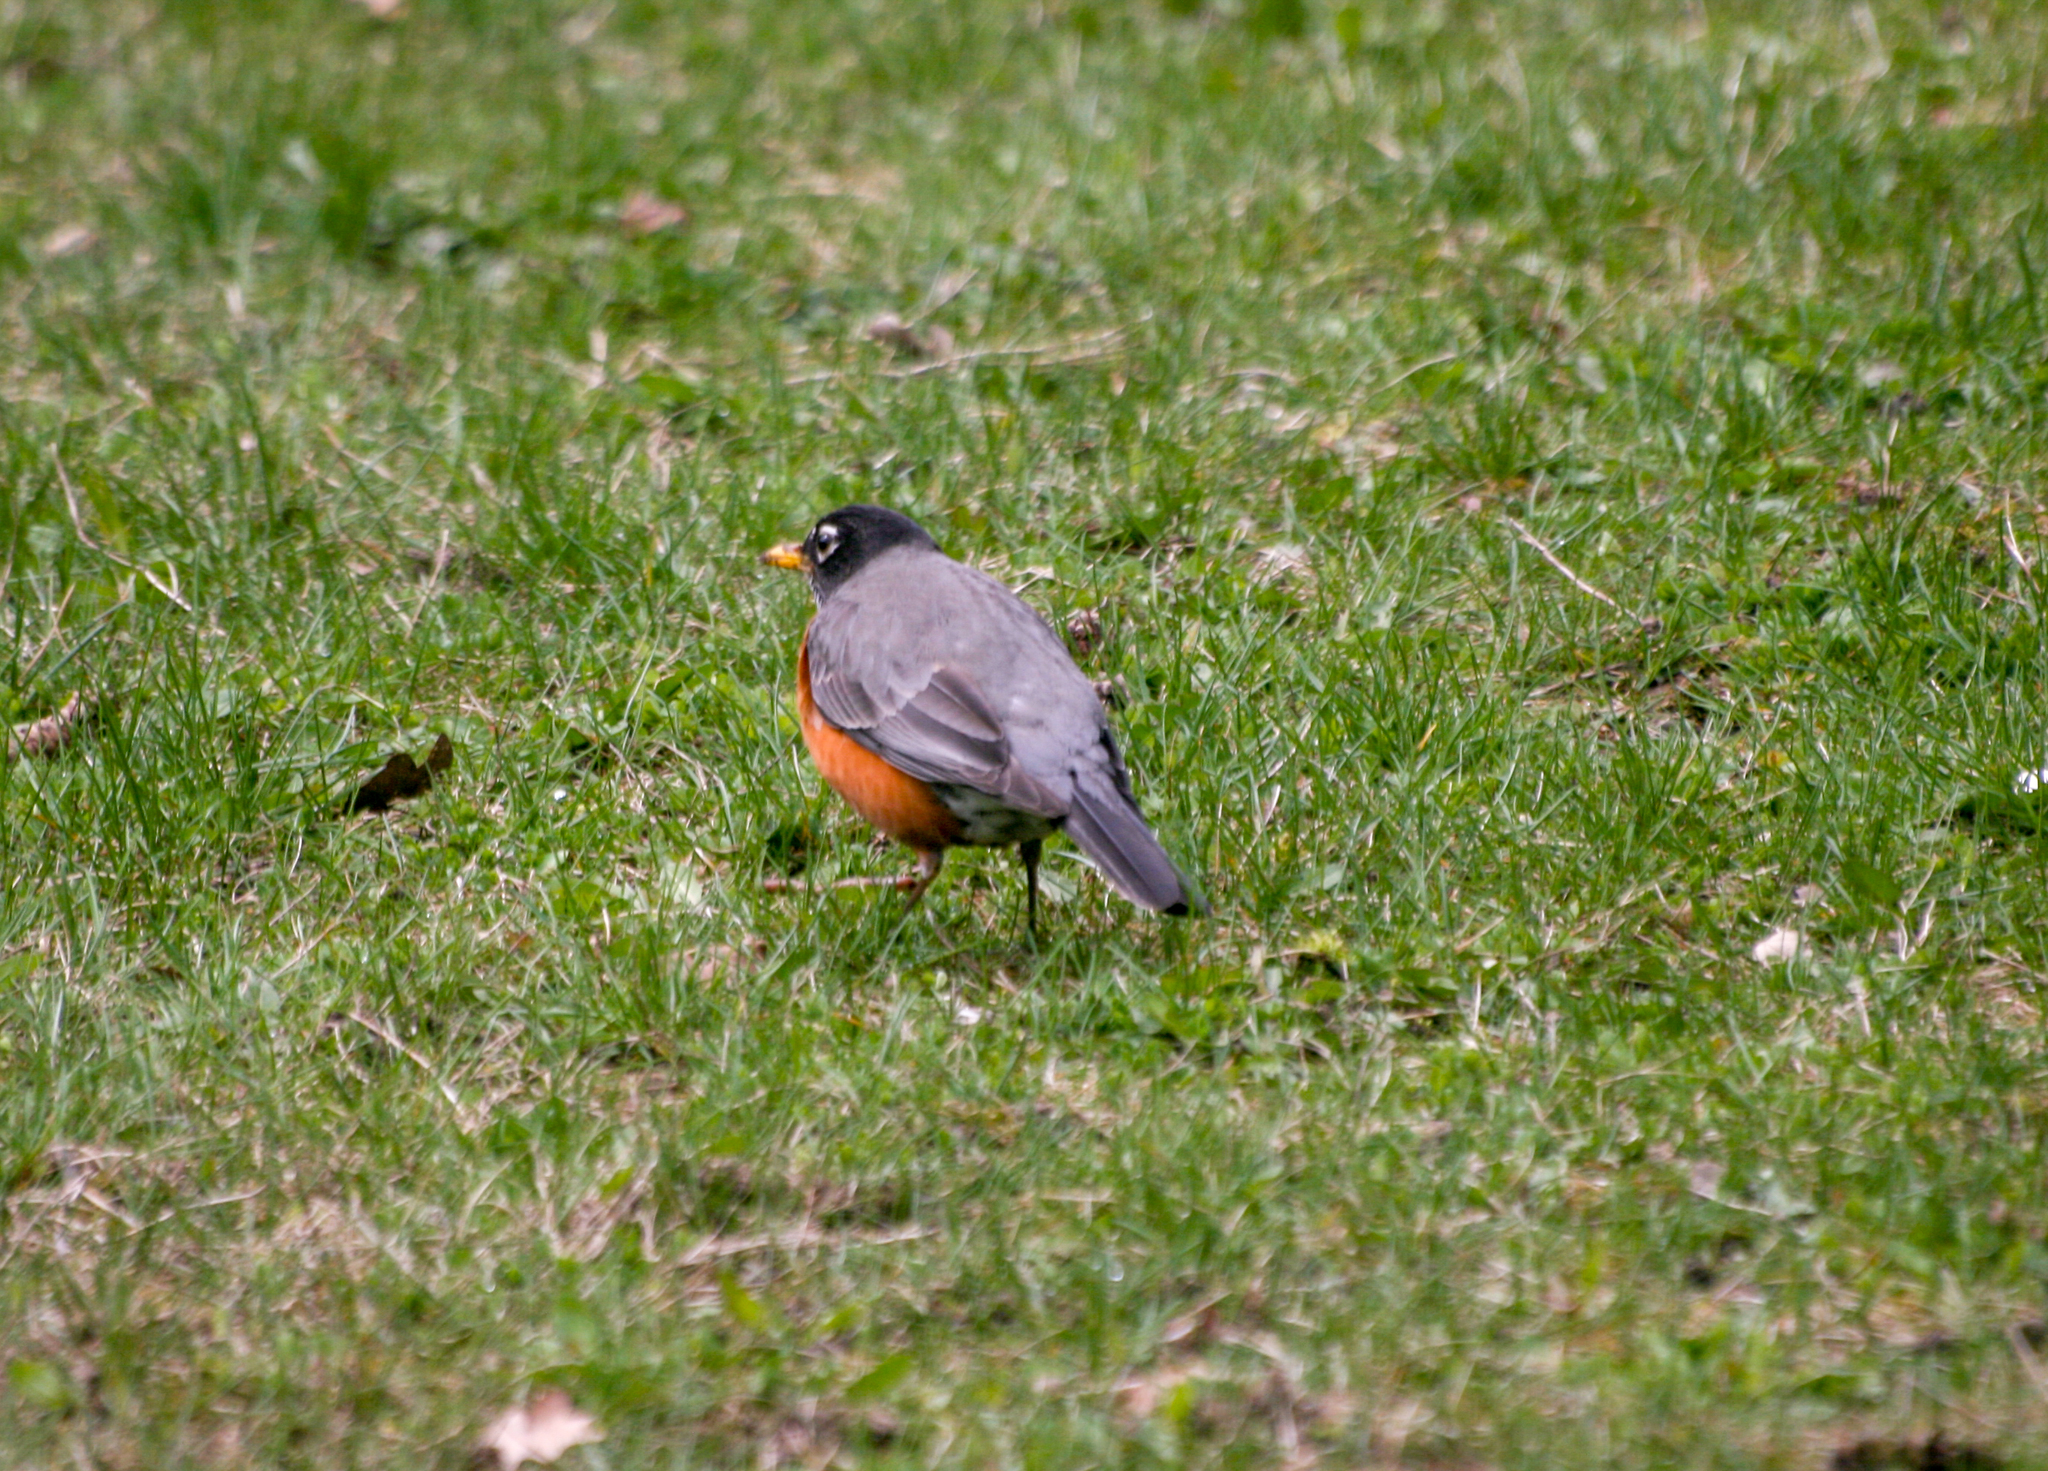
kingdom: Animalia
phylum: Chordata
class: Aves
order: Passeriformes
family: Turdidae
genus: Turdus
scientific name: Turdus migratorius
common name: American robin
